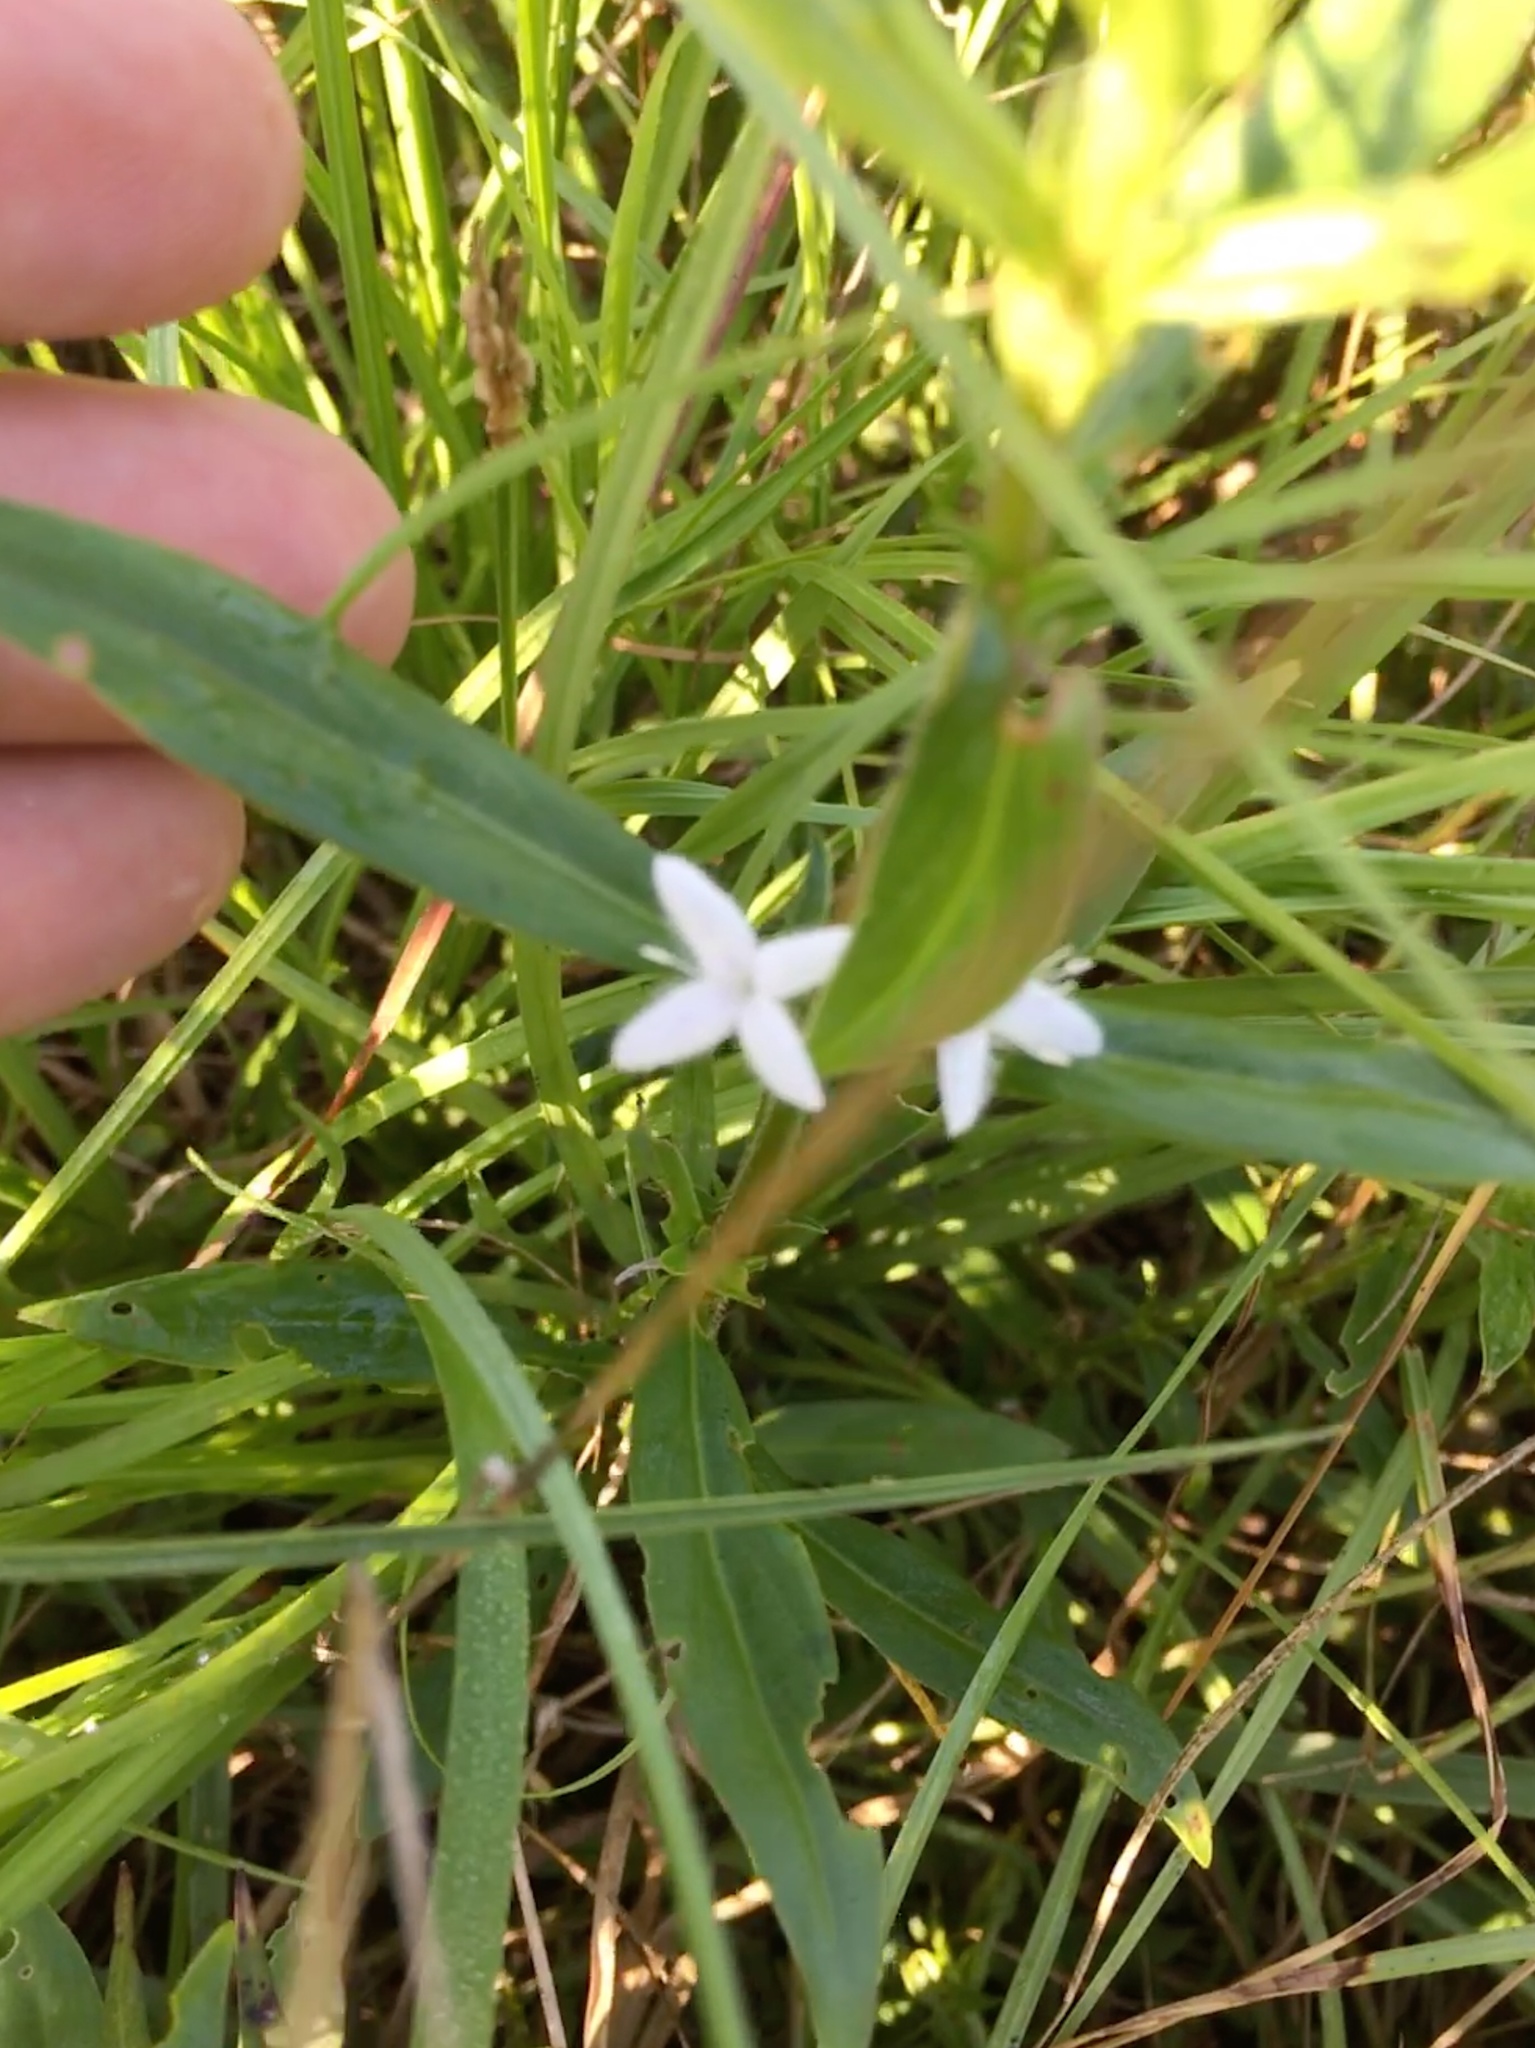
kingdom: Plantae
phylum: Tracheophyta
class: Magnoliopsida
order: Gentianales
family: Rubiaceae
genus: Diodia
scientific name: Diodia virginiana
